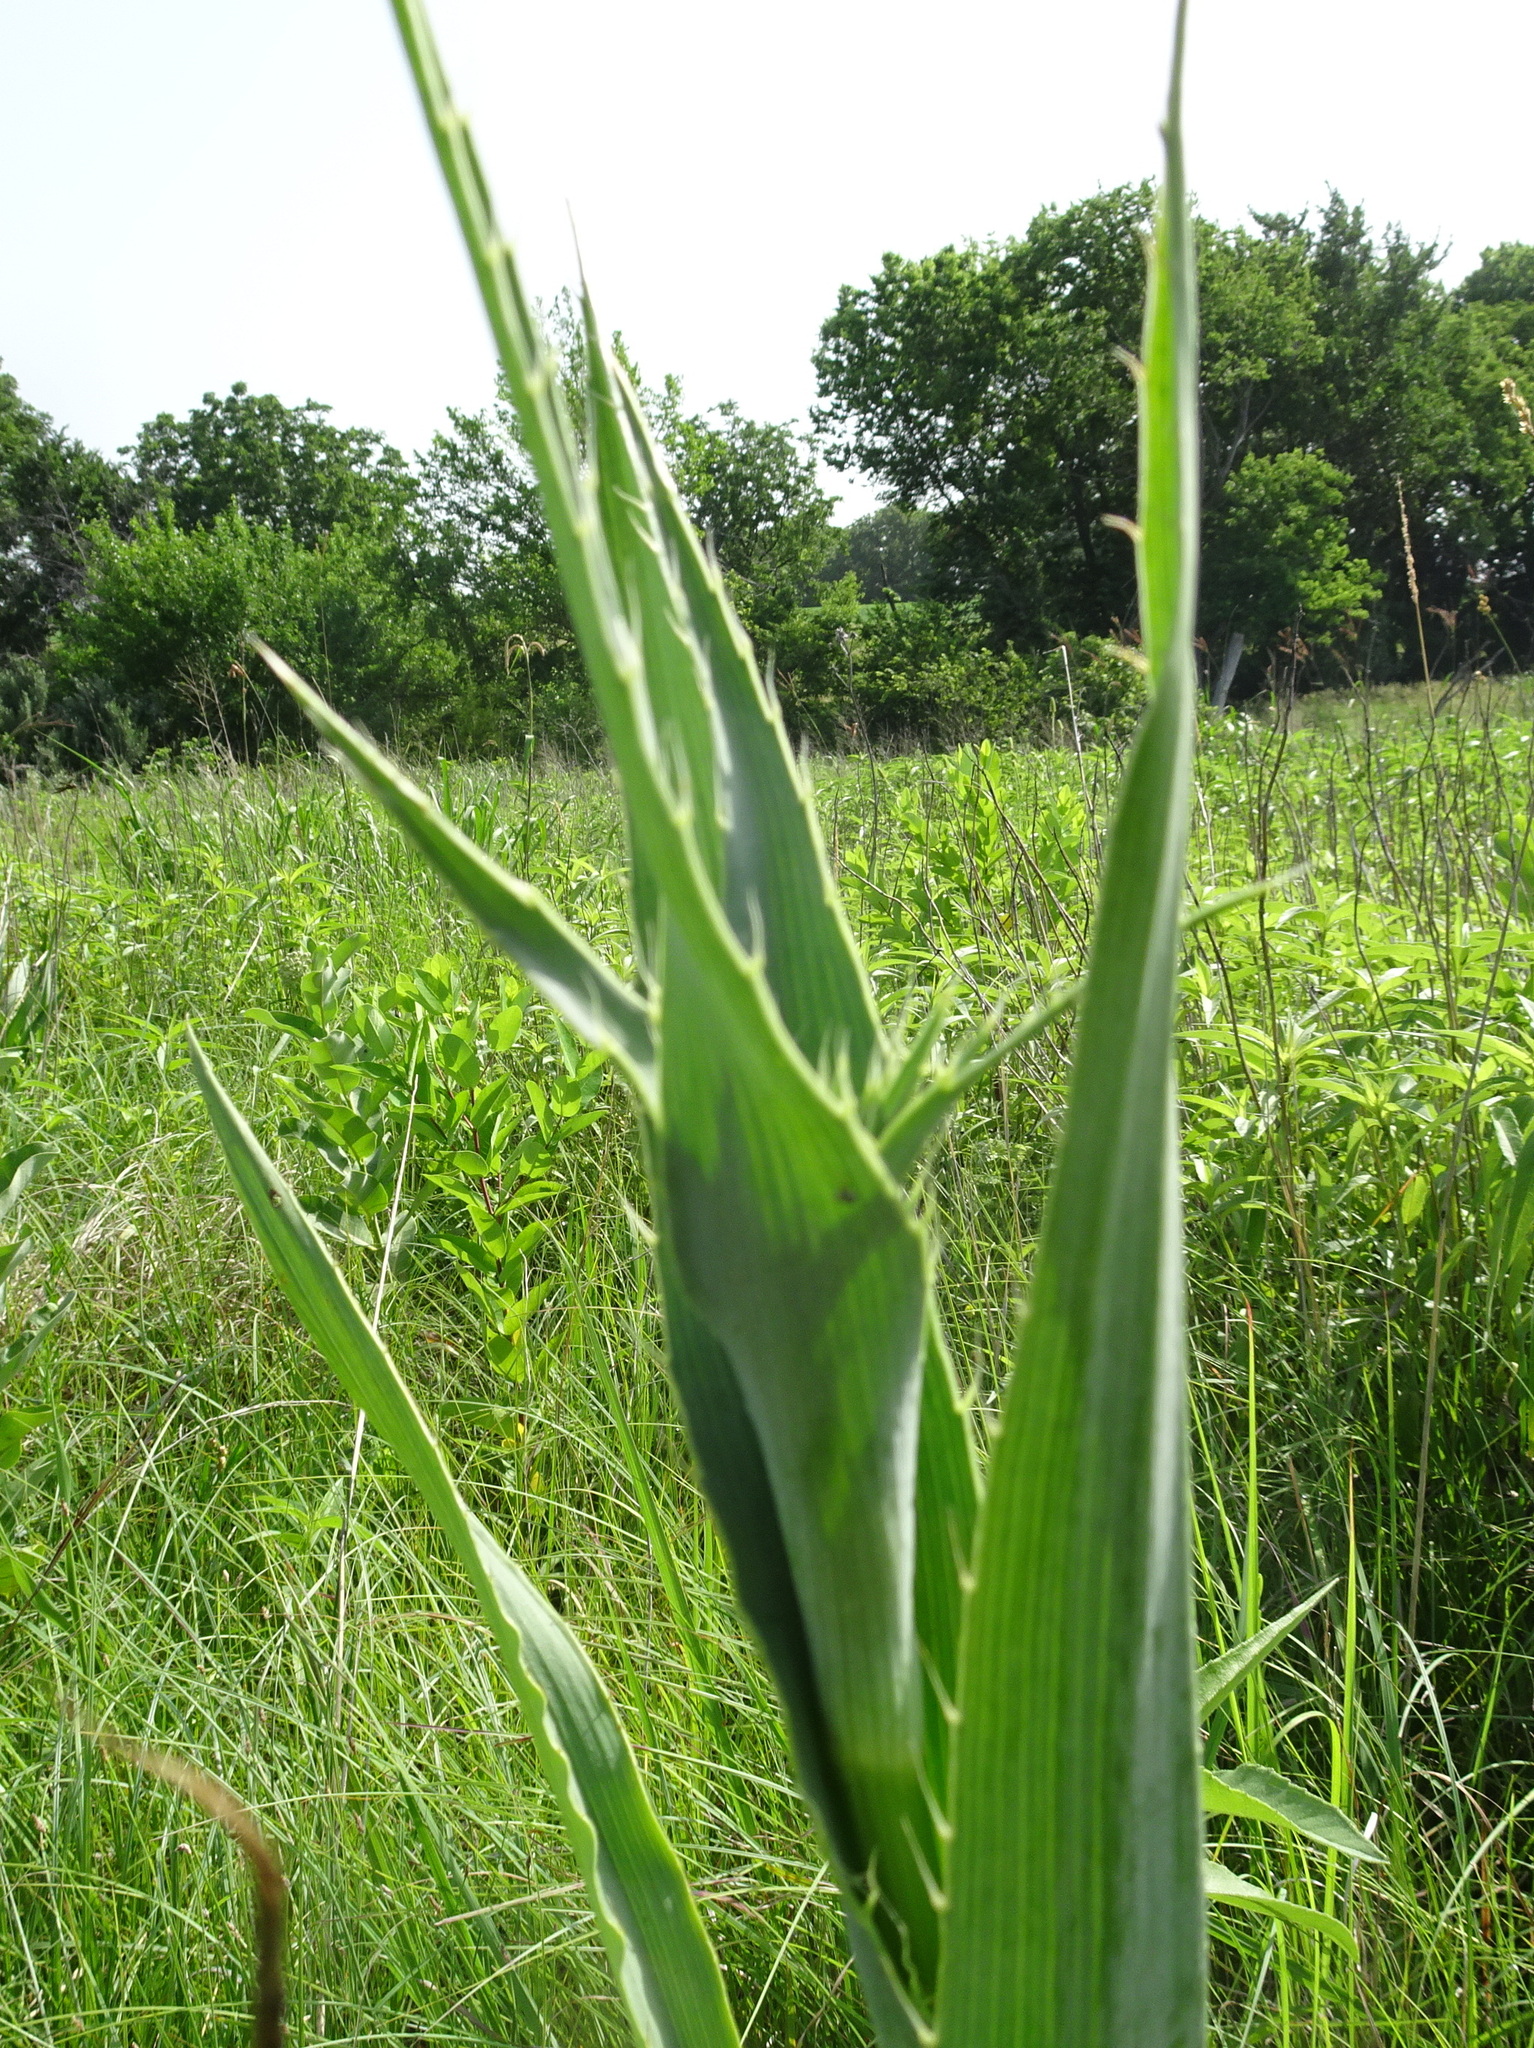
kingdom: Plantae
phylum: Tracheophyta
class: Magnoliopsida
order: Apiales
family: Apiaceae
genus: Eryngium
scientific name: Eryngium yuccifolium
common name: Button eryngo
